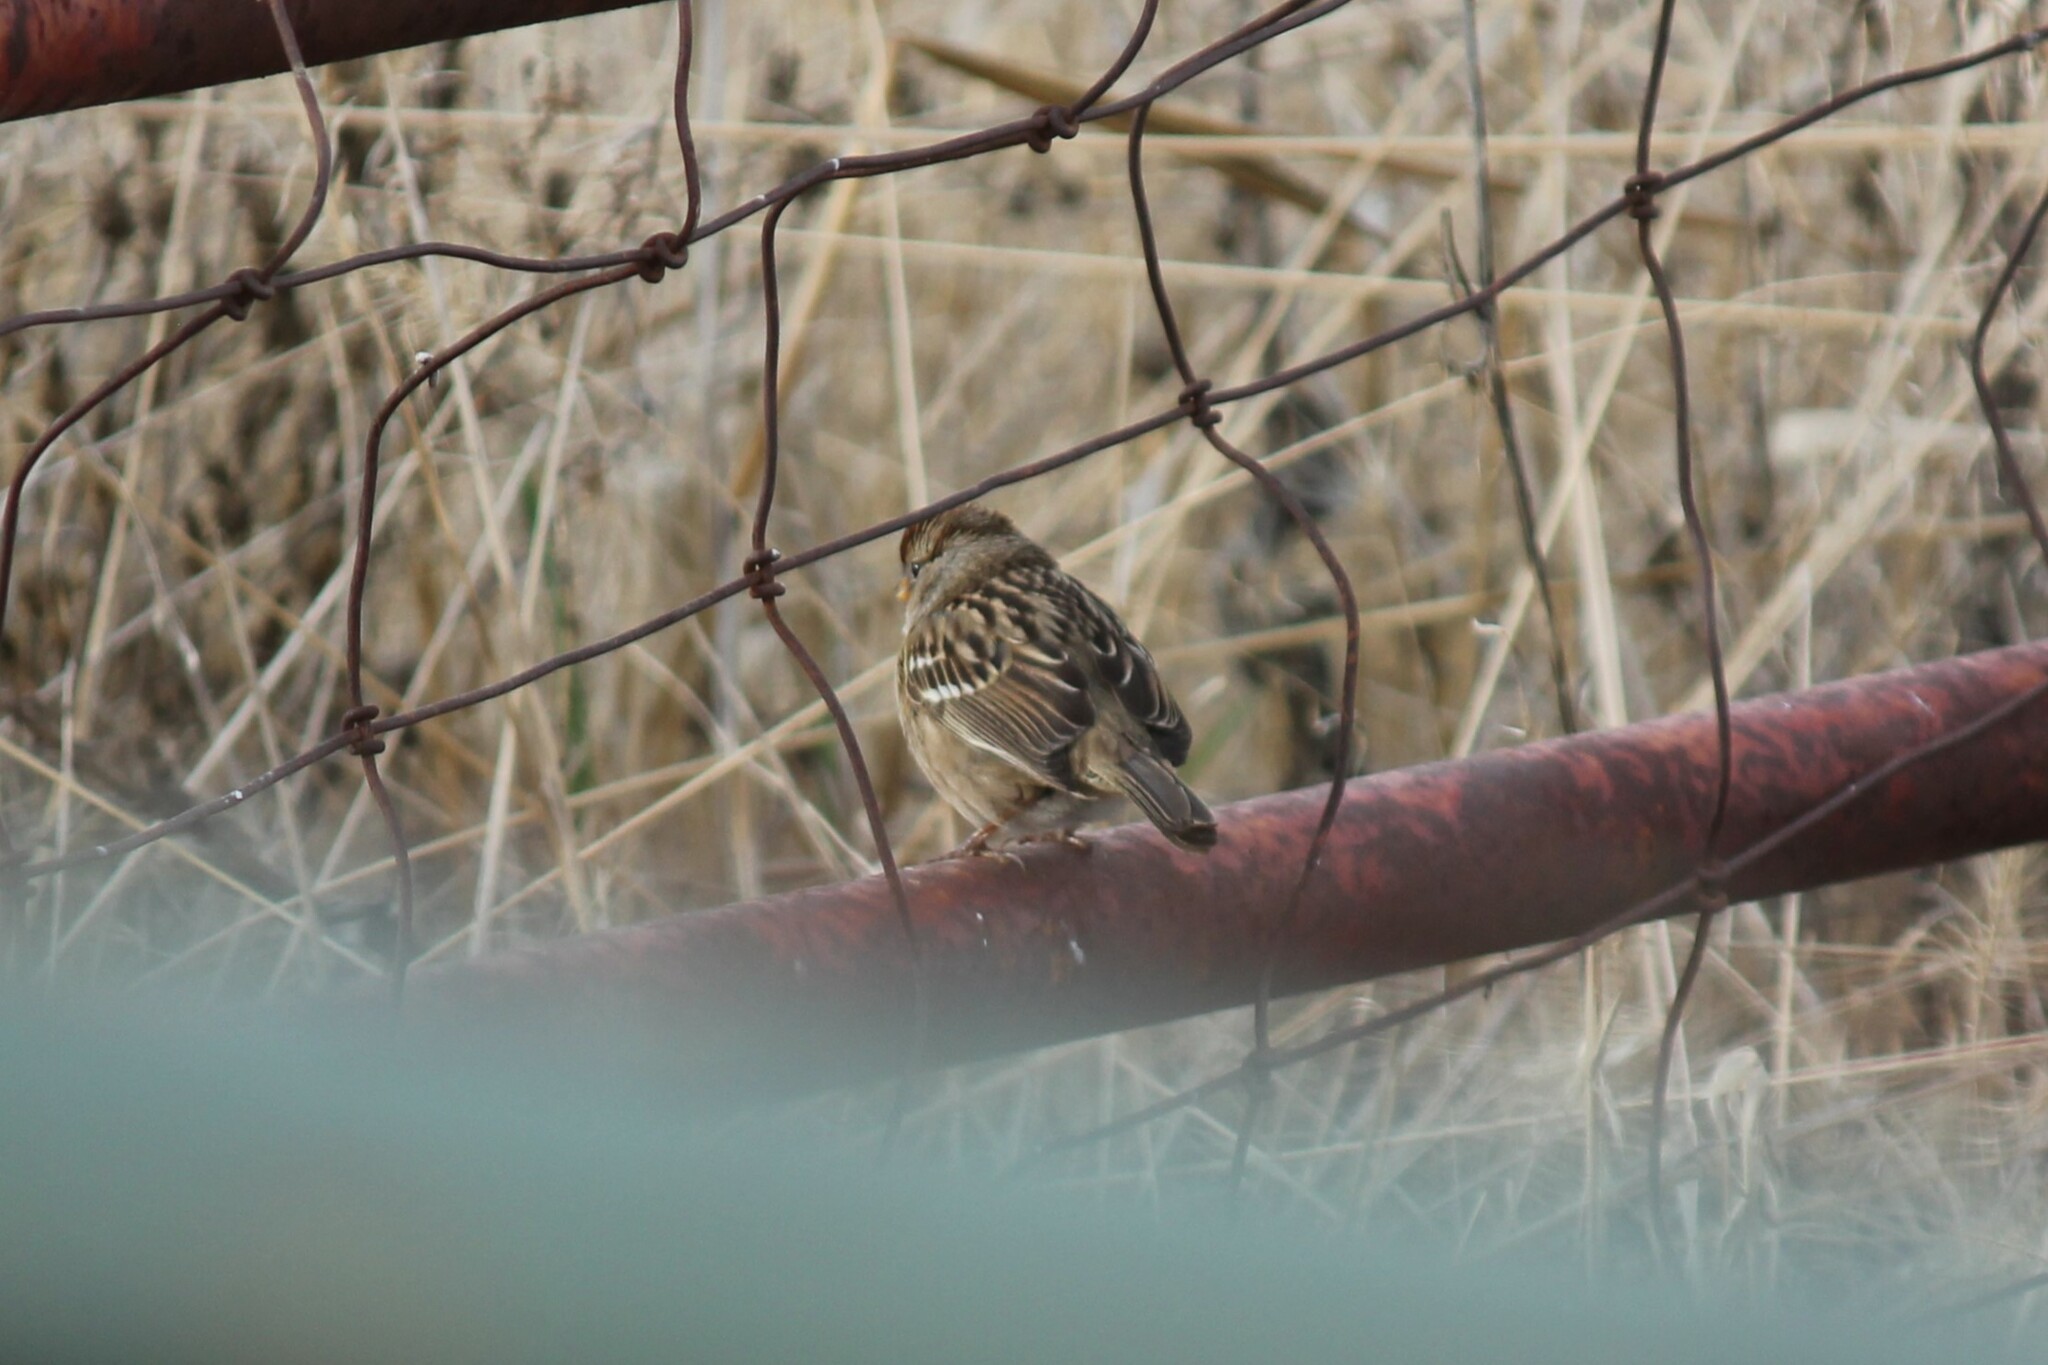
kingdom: Animalia
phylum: Chordata
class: Aves
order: Passeriformes
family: Passerellidae
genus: Zonotrichia
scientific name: Zonotrichia leucophrys
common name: White-crowned sparrow
